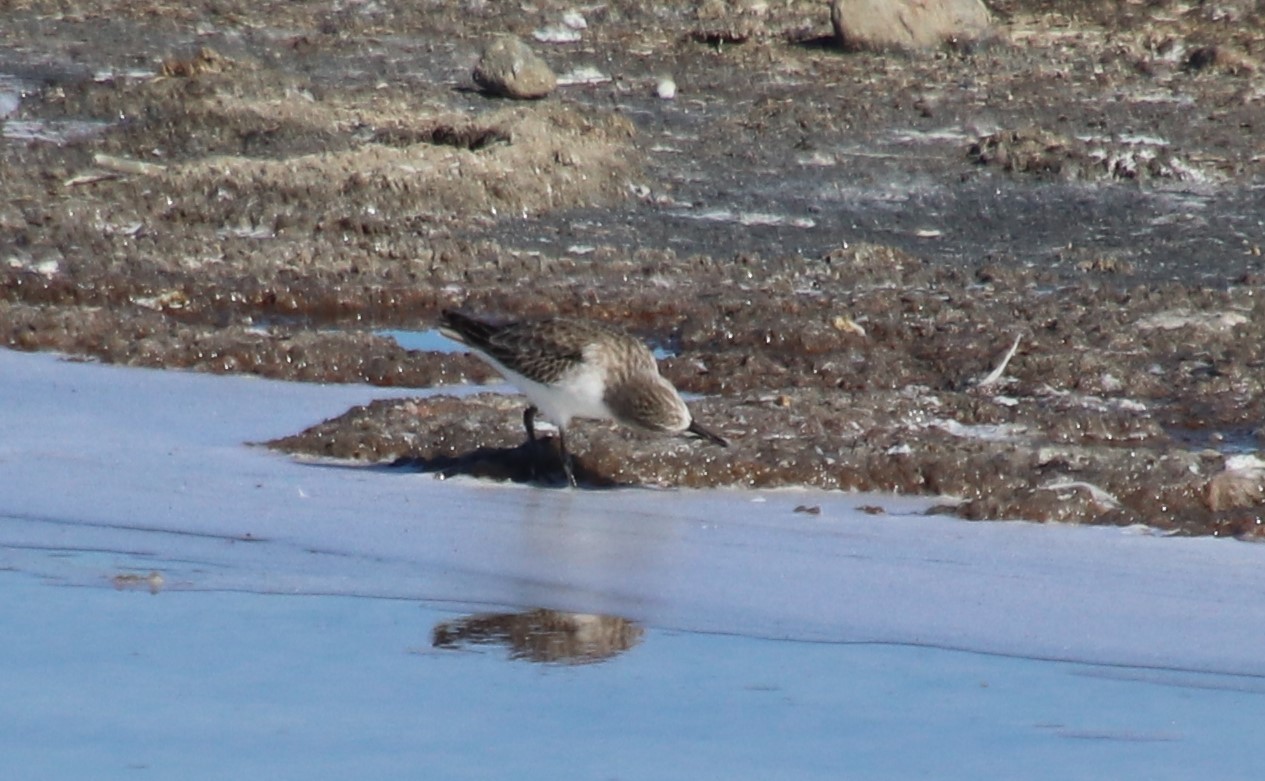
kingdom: Animalia
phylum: Chordata
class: Aves
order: Charadriiformes
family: Scolopacidae
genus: Calidris
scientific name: Calidris minuta
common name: Little stint
